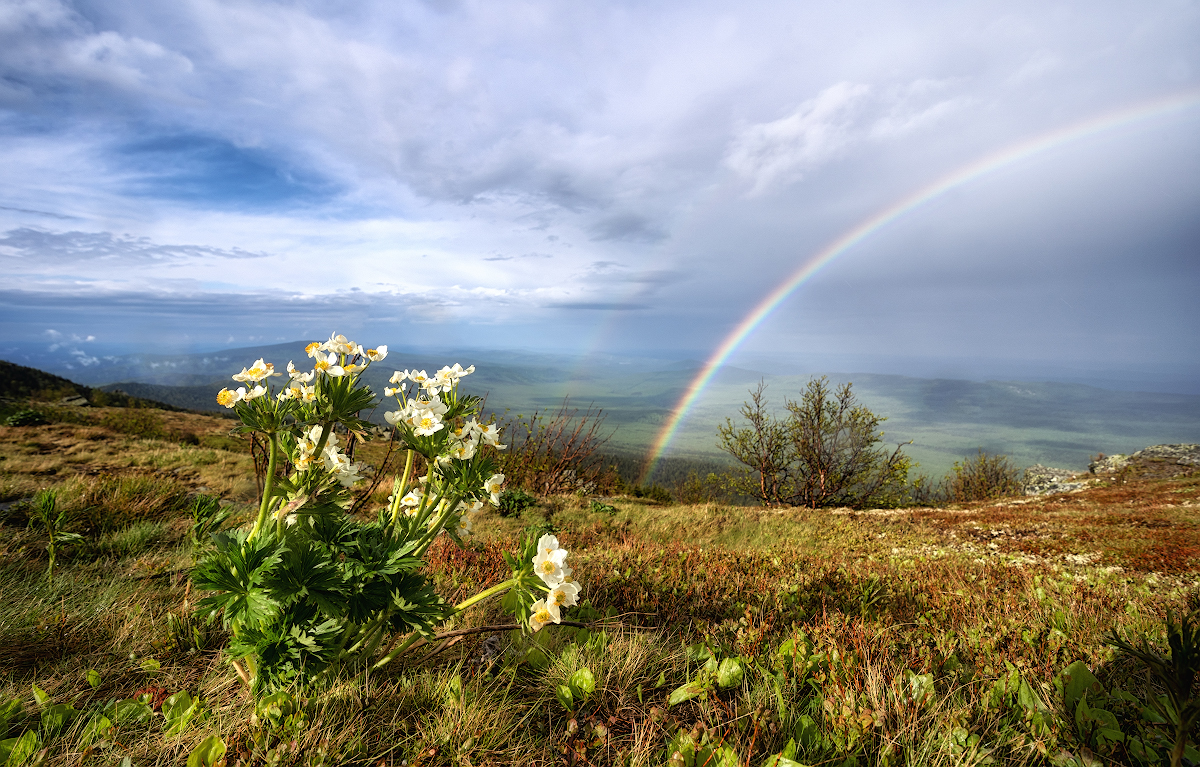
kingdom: Plantae
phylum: Tracheophyta
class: Magnoliopsida
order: Ranunculales
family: Ranunculaceae
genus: Anemonastrum
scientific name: Anemonastrum biarmiense
